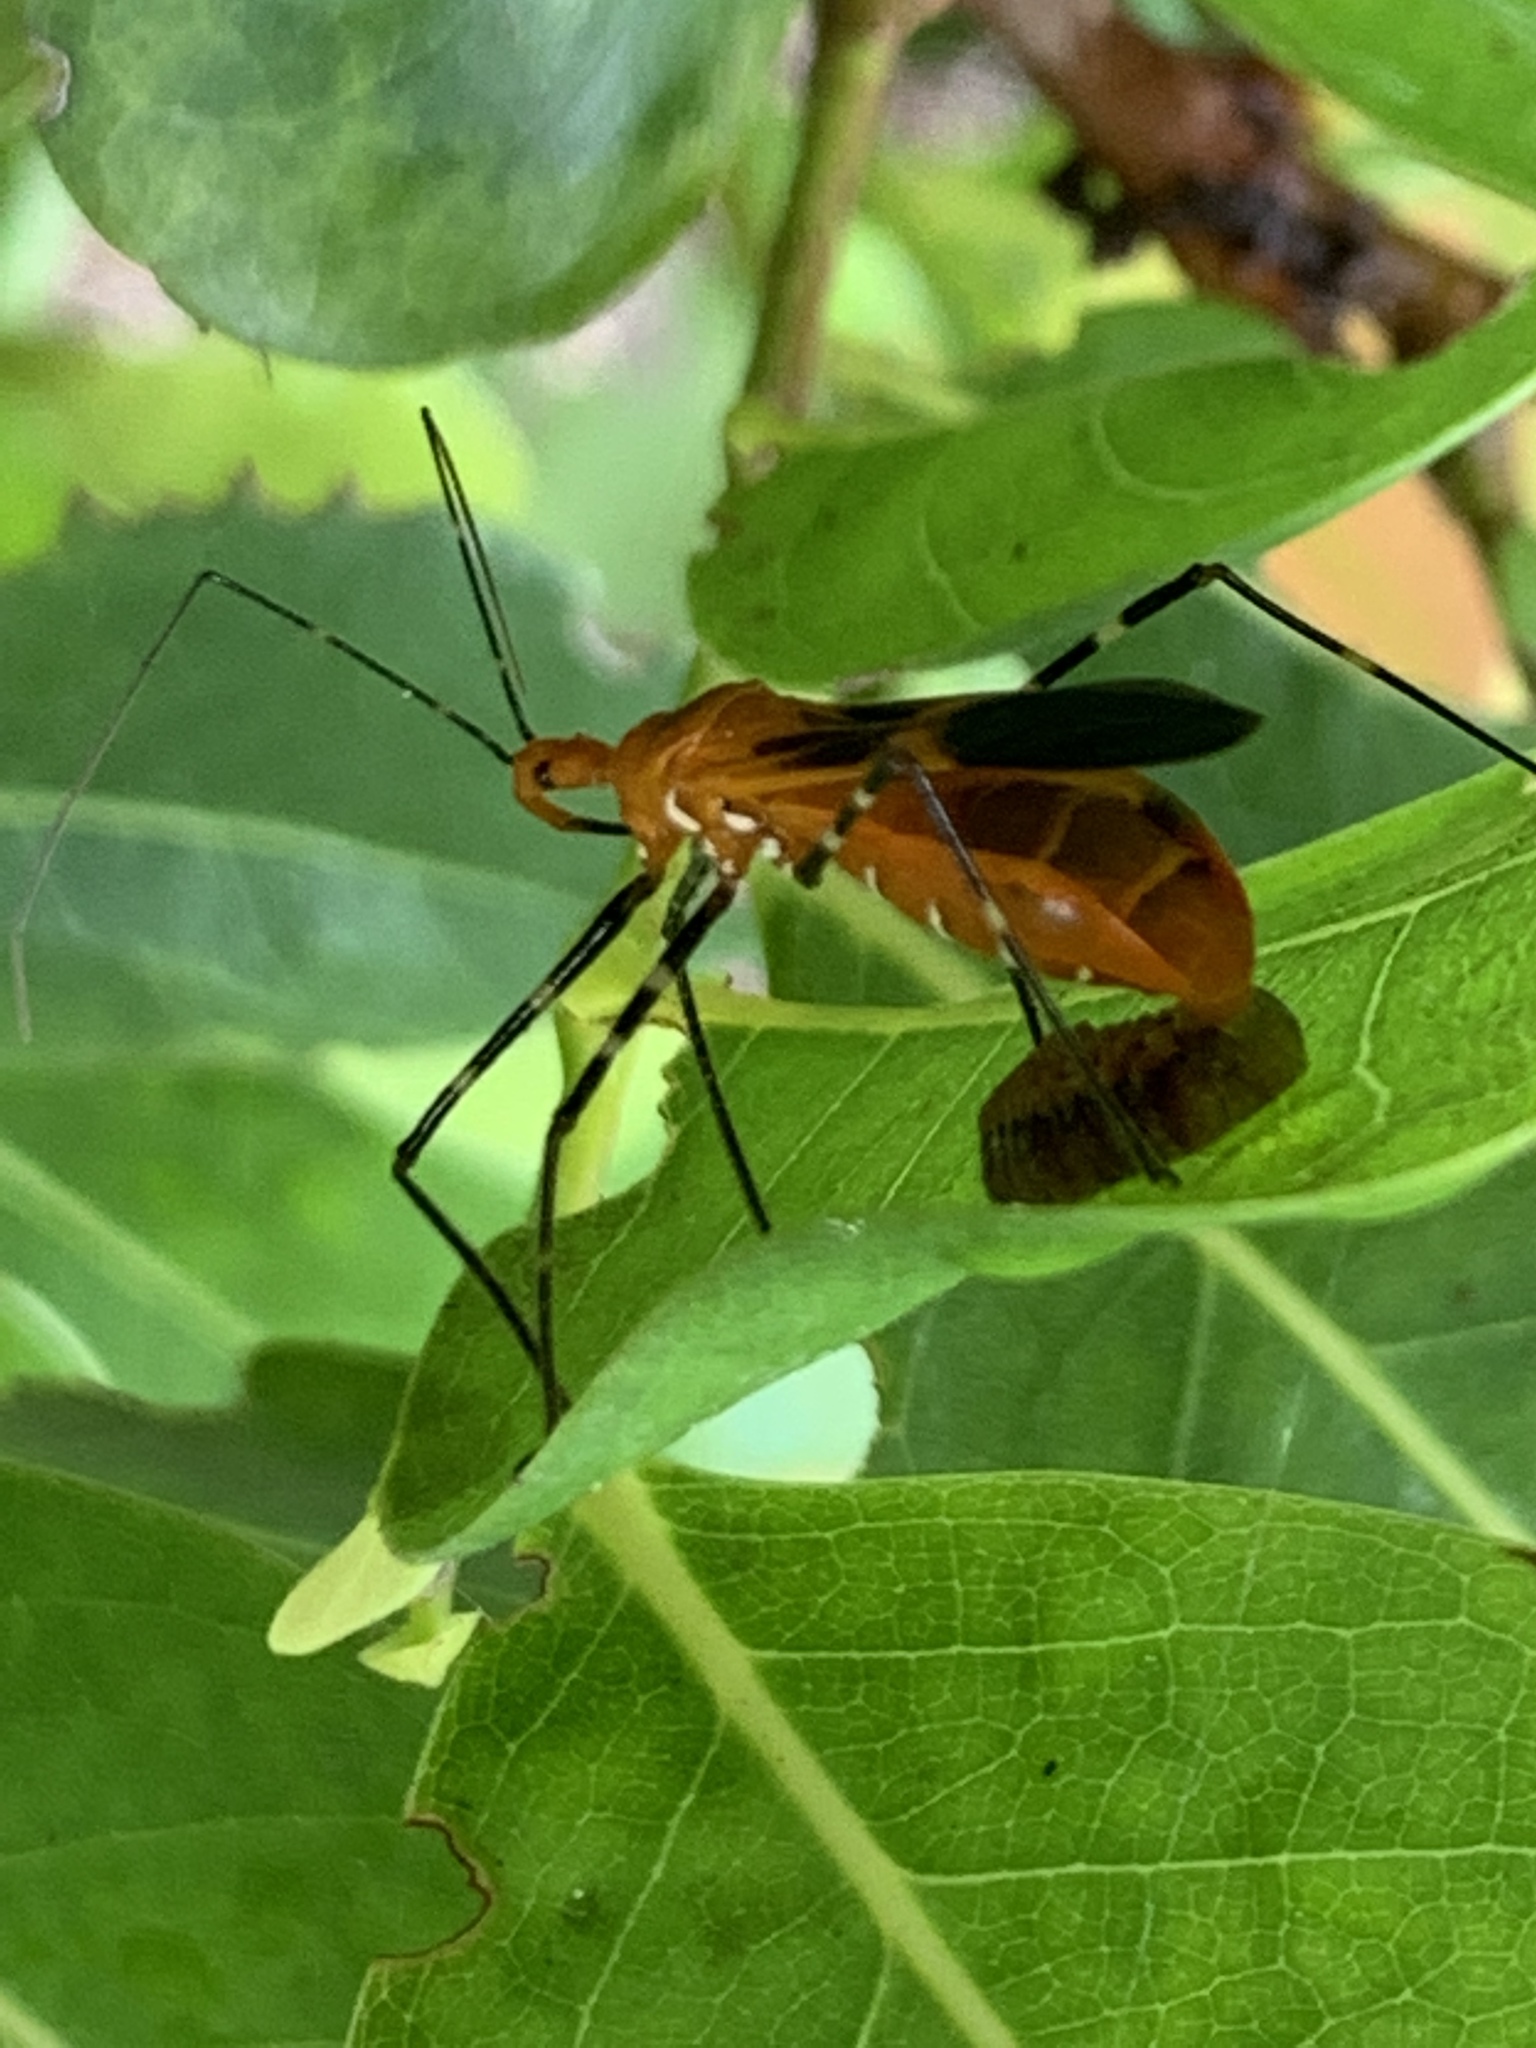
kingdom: Animalia
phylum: Arthropoda
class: Insecta
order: Hemiptera
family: Reduviidae
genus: Zelus
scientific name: Zelus longipes
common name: Milkweed assassin bug
